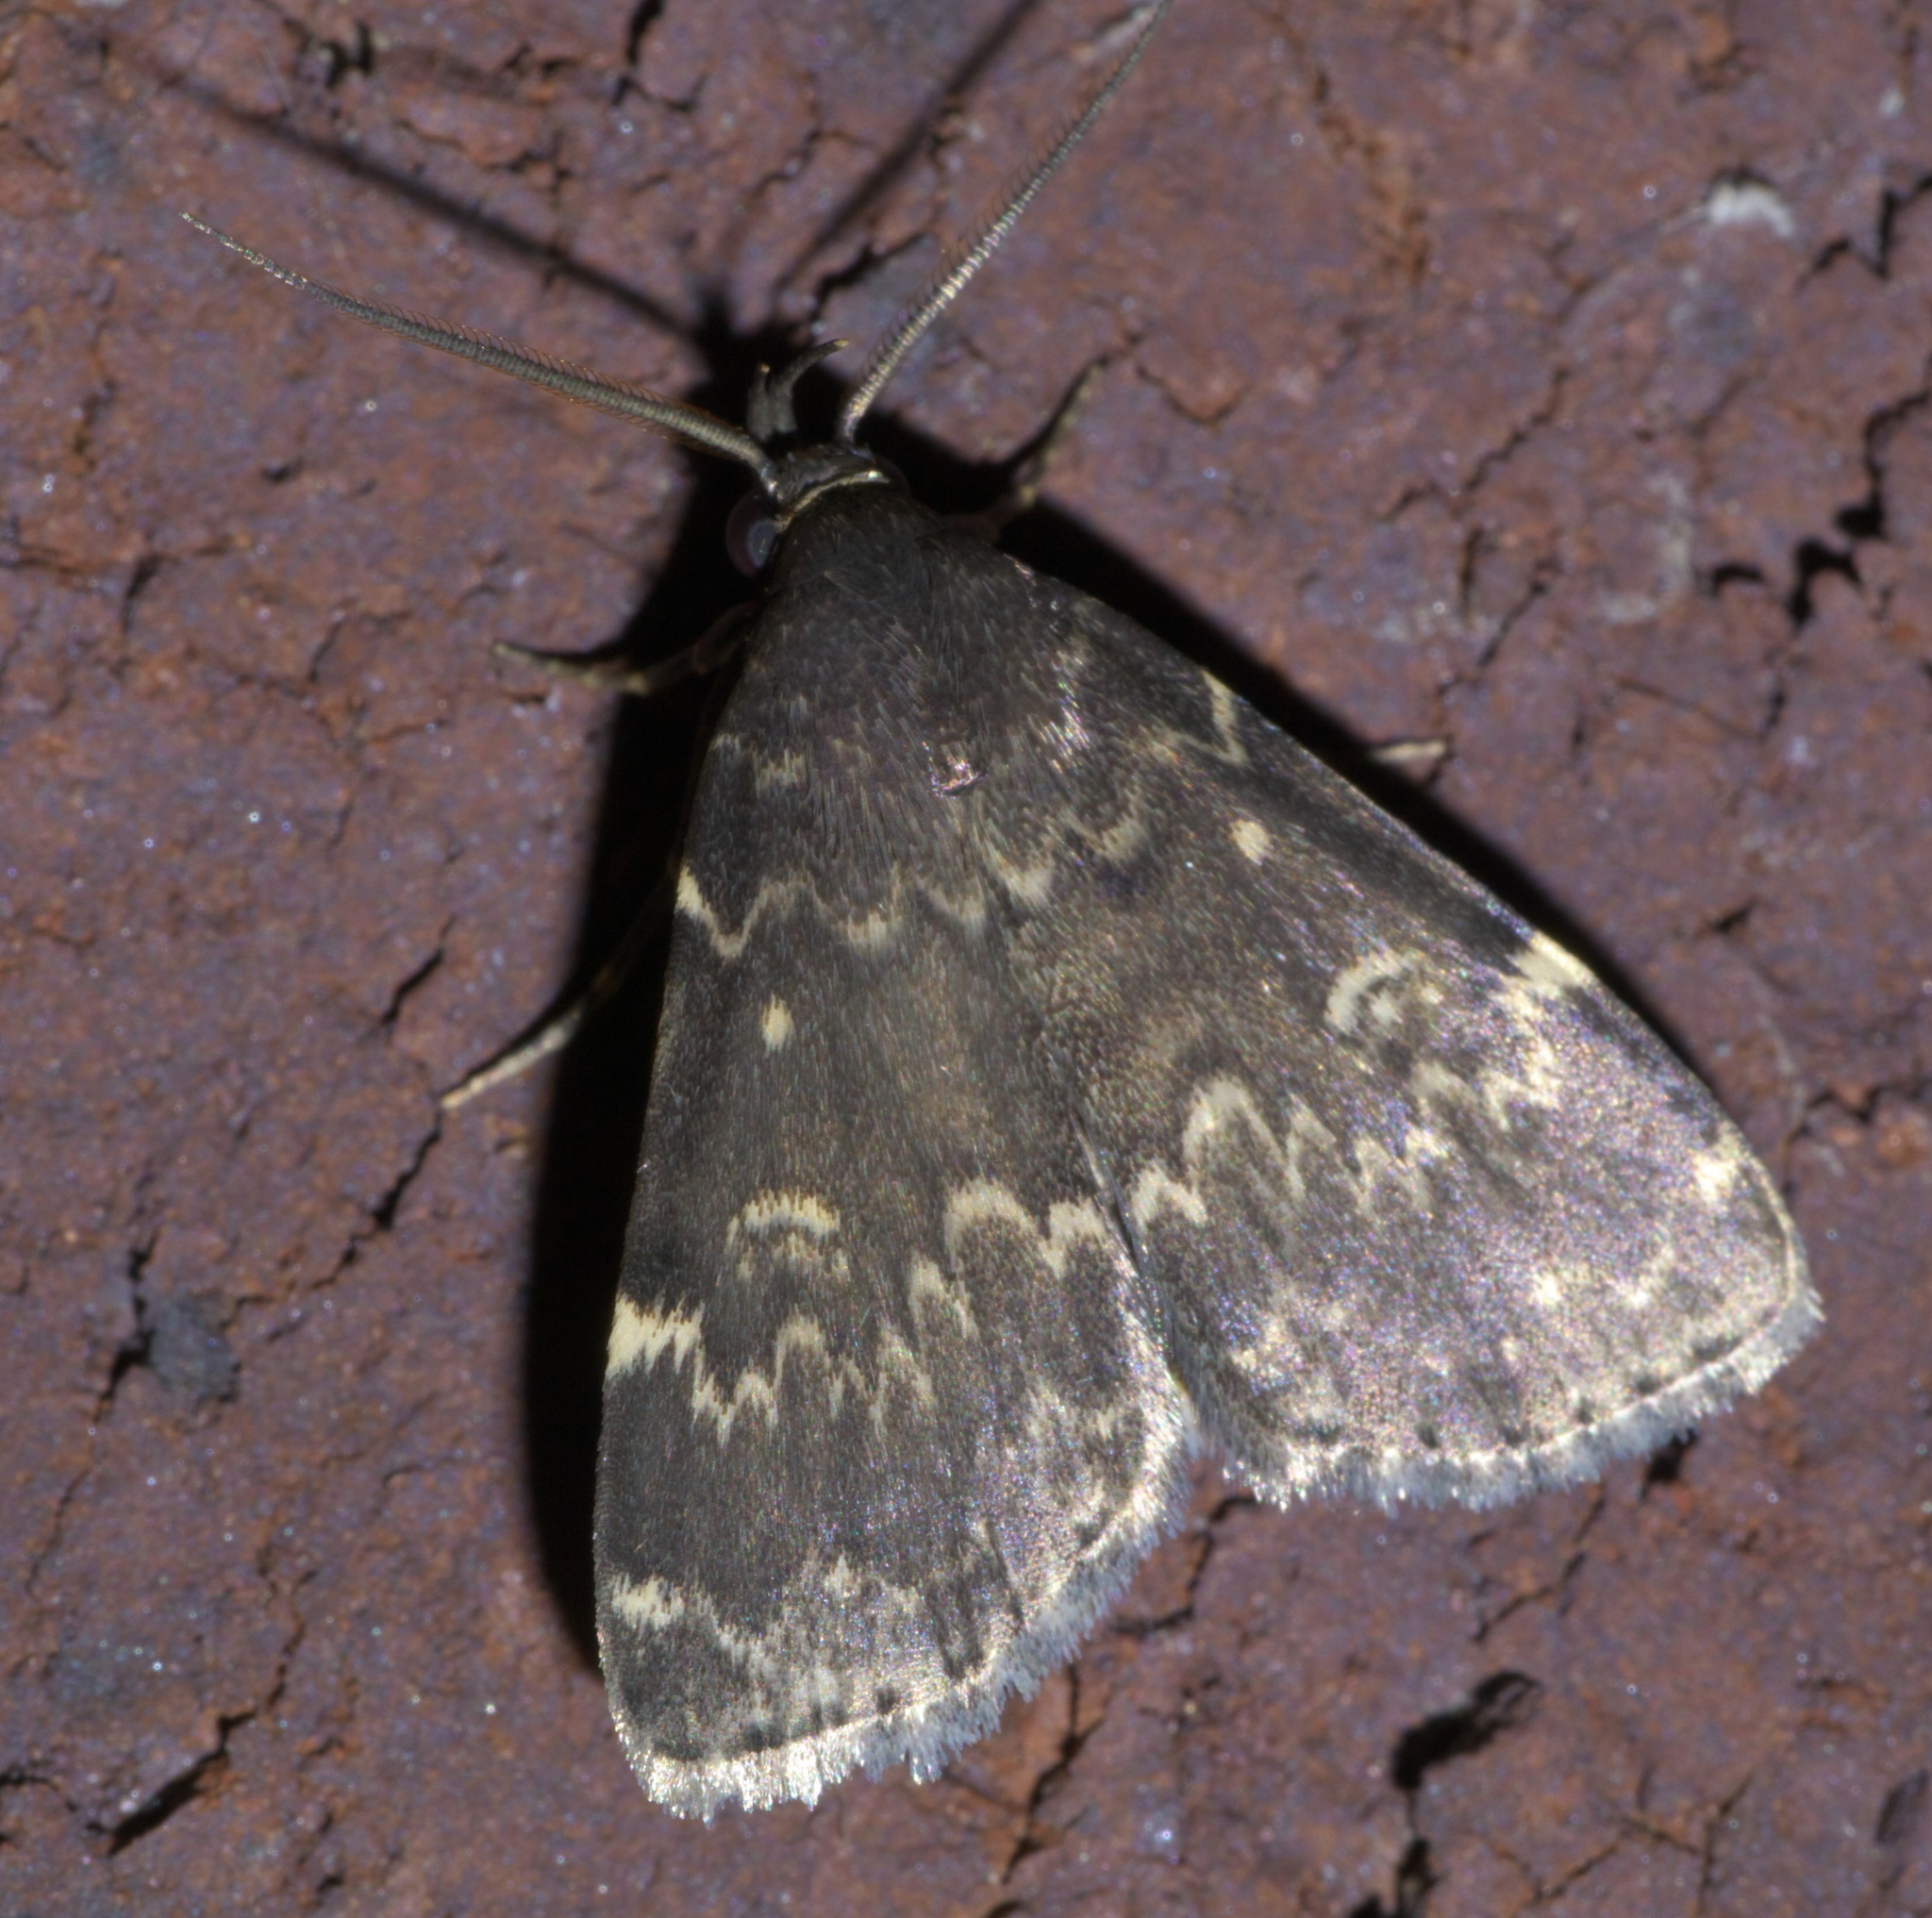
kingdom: Animalia
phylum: Arthropoda
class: Insecta
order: Lepidoptera
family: Erebidae
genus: Idia
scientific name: Idia lubricalis
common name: Twin-striped tabby
